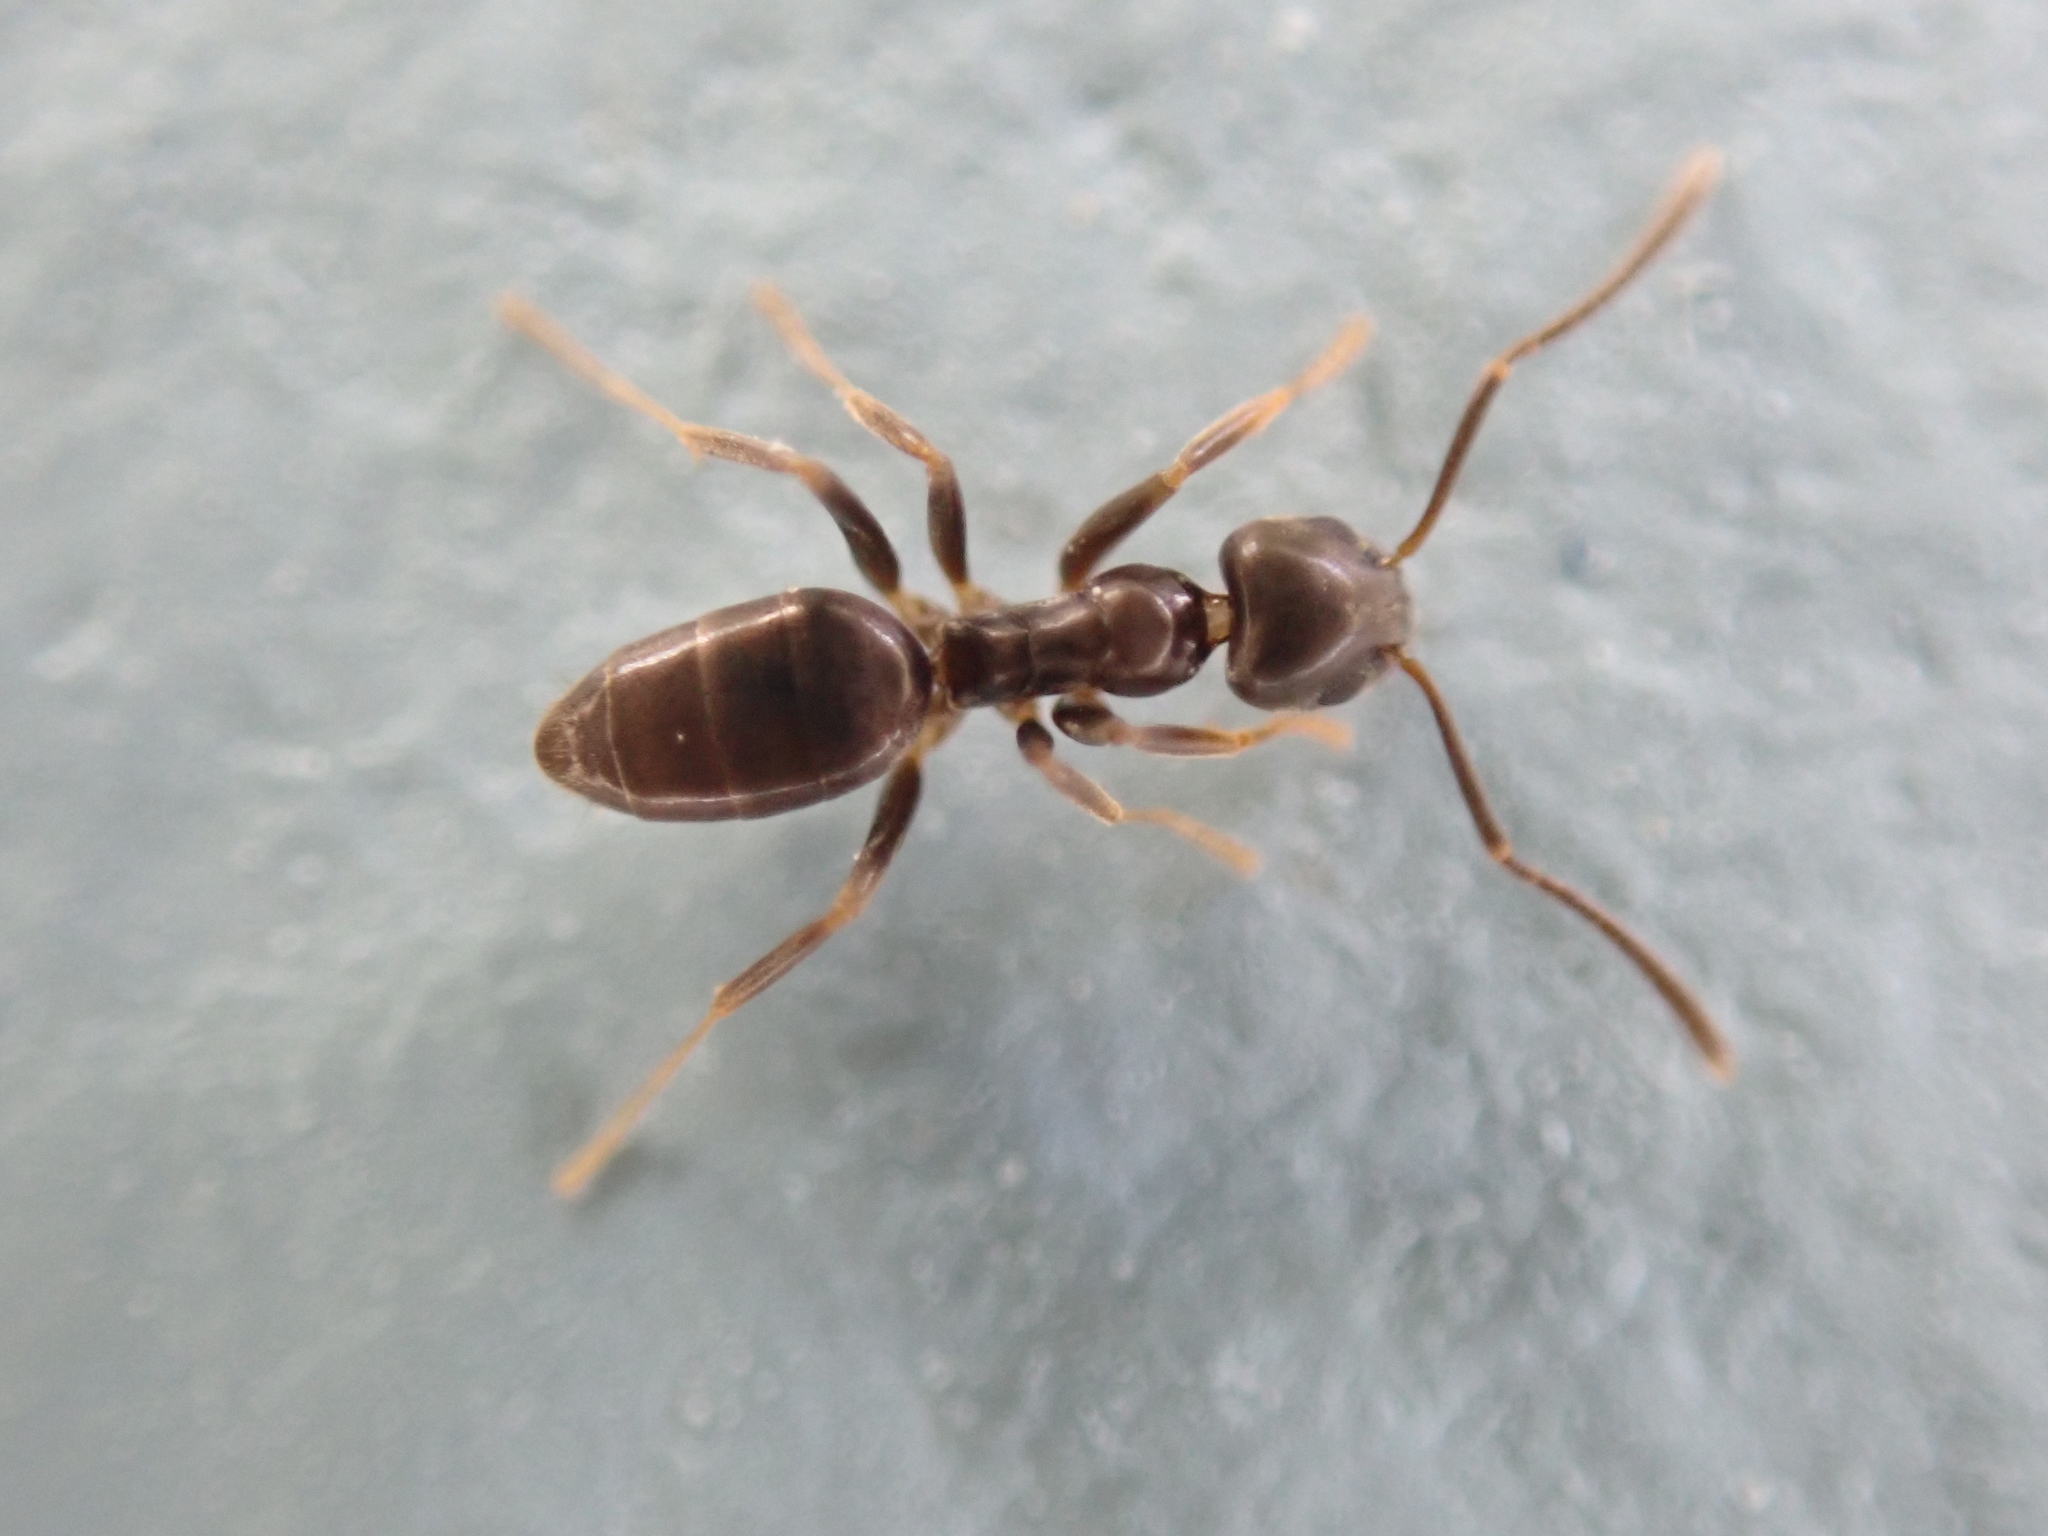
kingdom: Animalia
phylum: Arthropoda
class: Insecta
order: Hymenoptera
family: Formicidae
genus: Tapinoma
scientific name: Tapinoma sessile
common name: Odorous house ant
